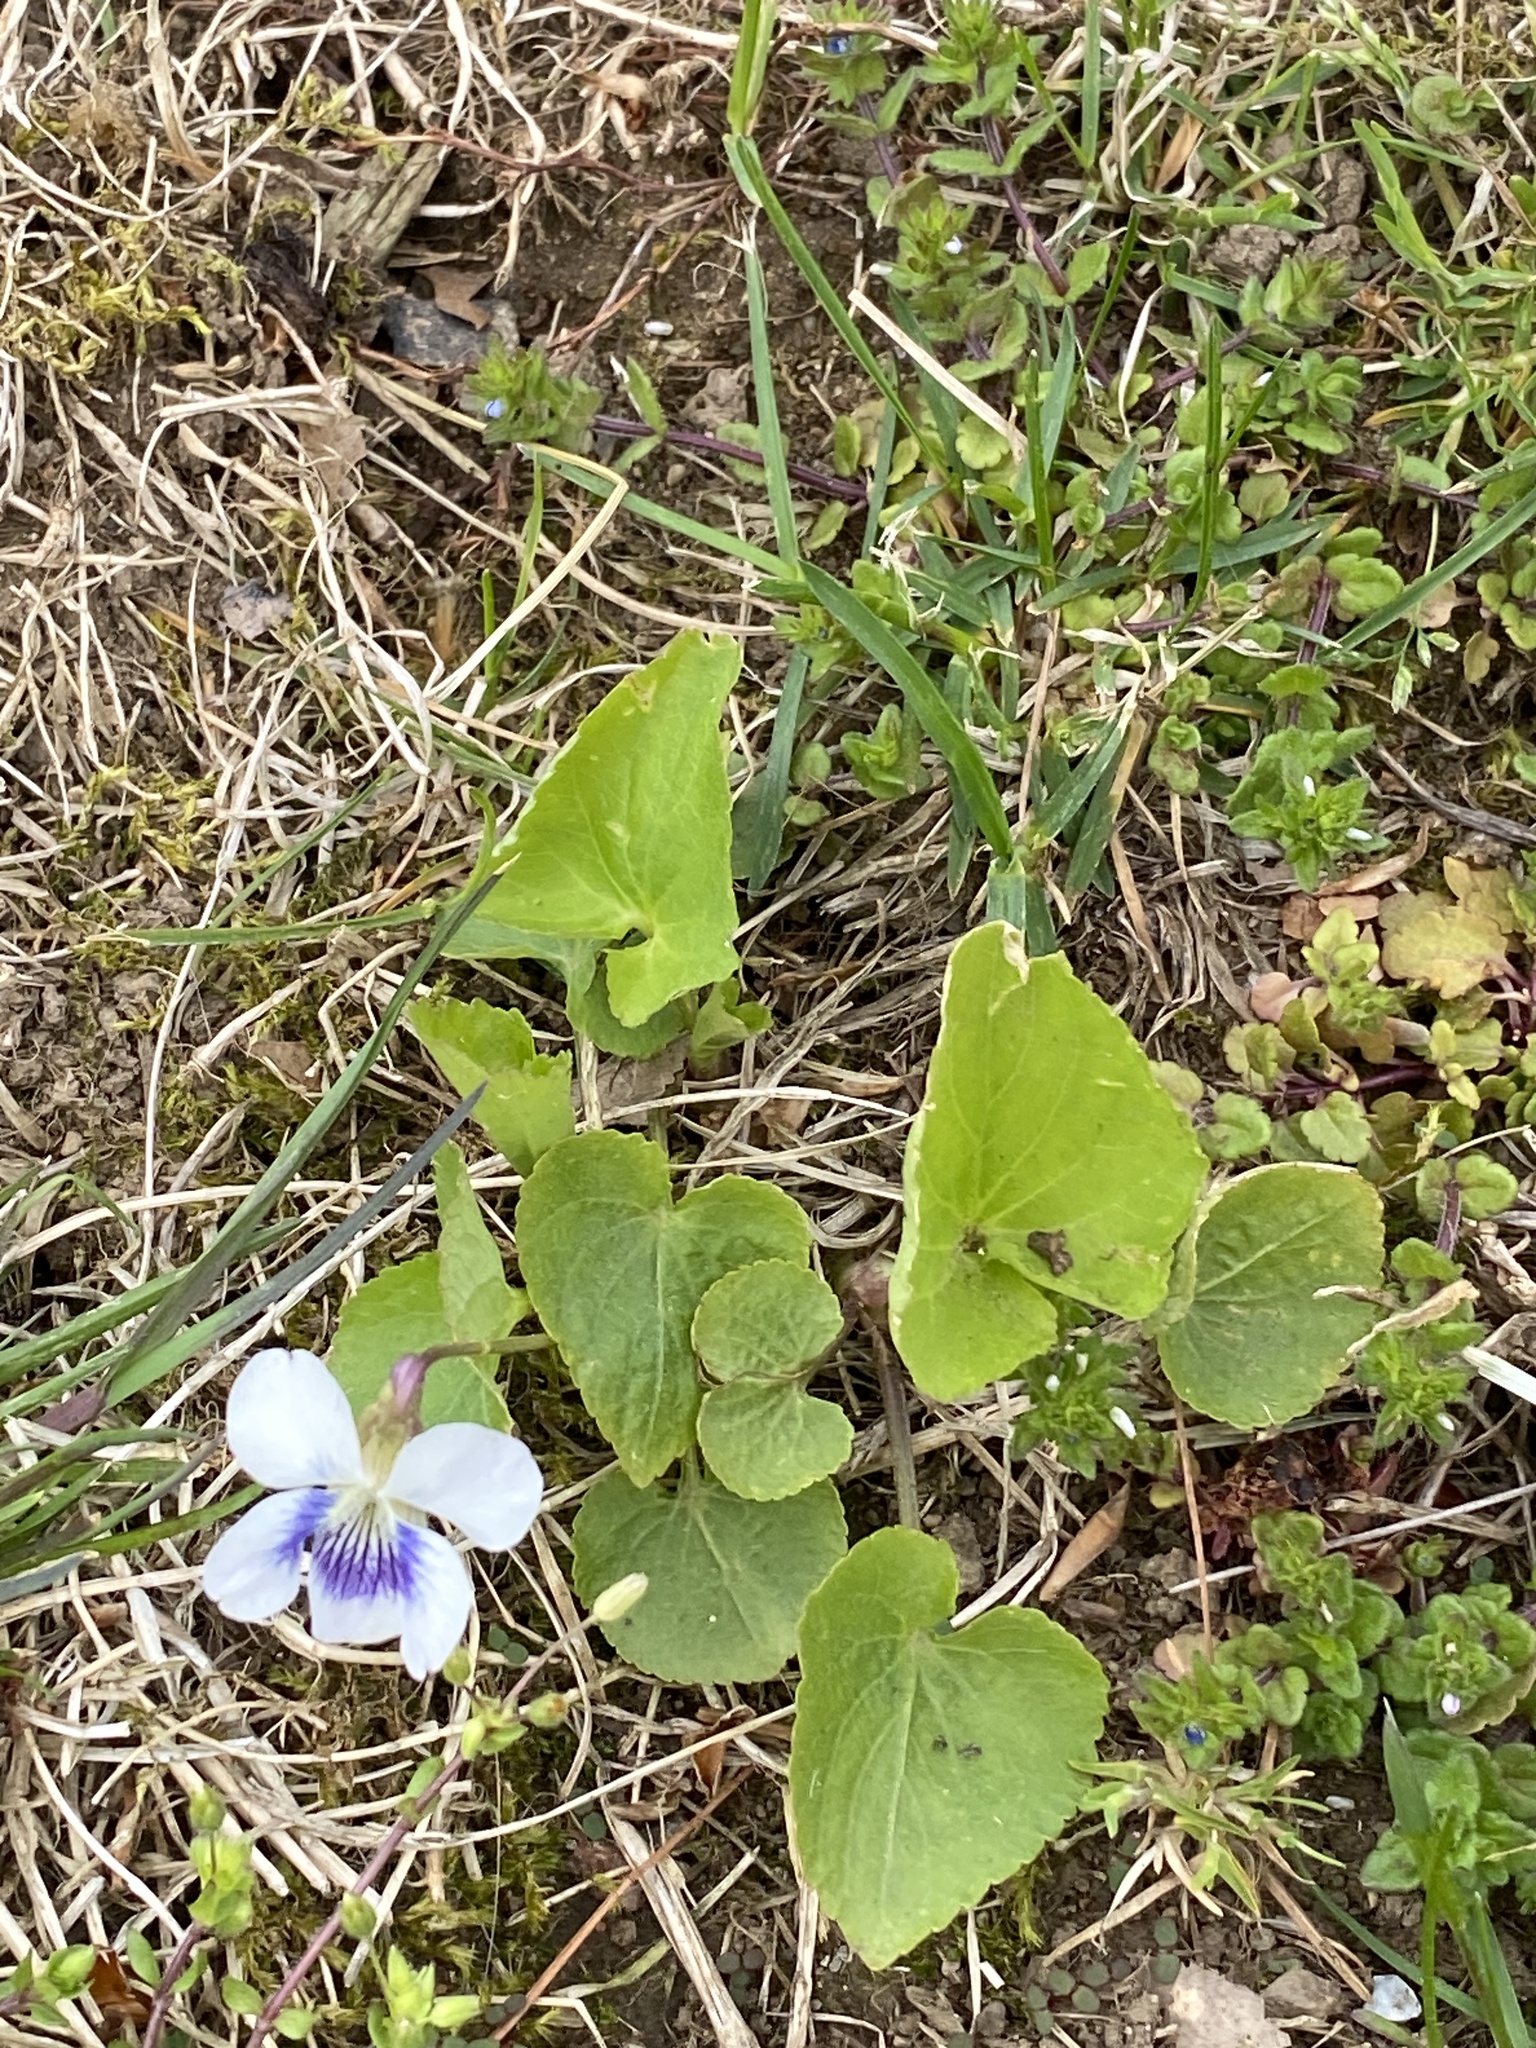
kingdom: Plantae
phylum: Tracheophyta
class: Magnoliopsida
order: Malpighiales
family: Violaceae
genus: Viola
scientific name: Viola sororia
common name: Dooryard violet
